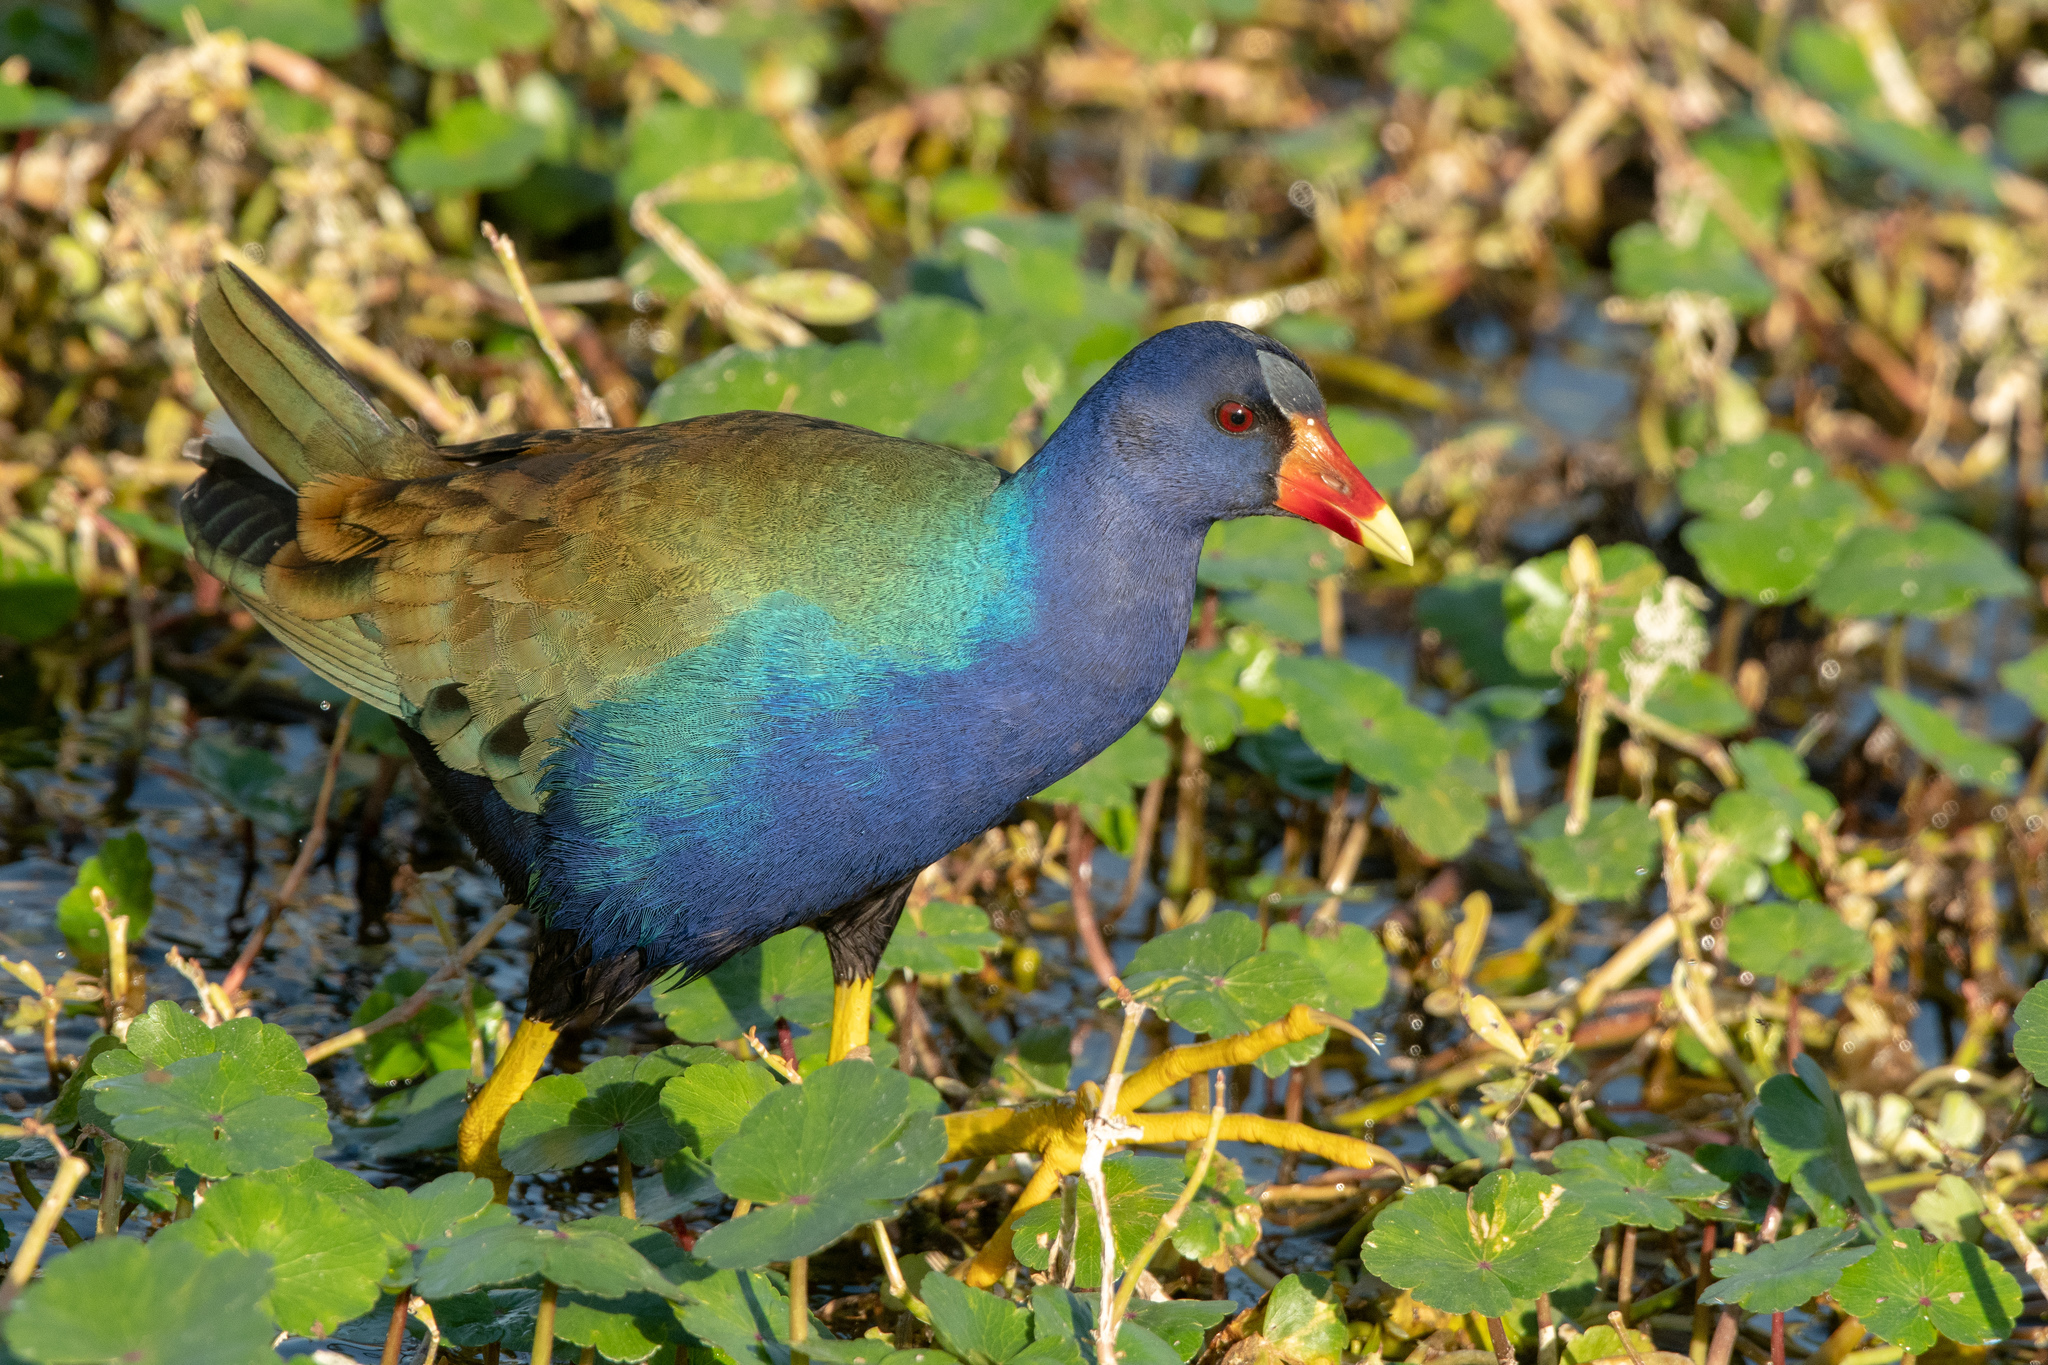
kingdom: Animalia
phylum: Chordata
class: Aves
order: Gruiformes
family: Rallidae
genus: Porphyrio
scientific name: Porphyrio martinica
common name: Purple gallinule
